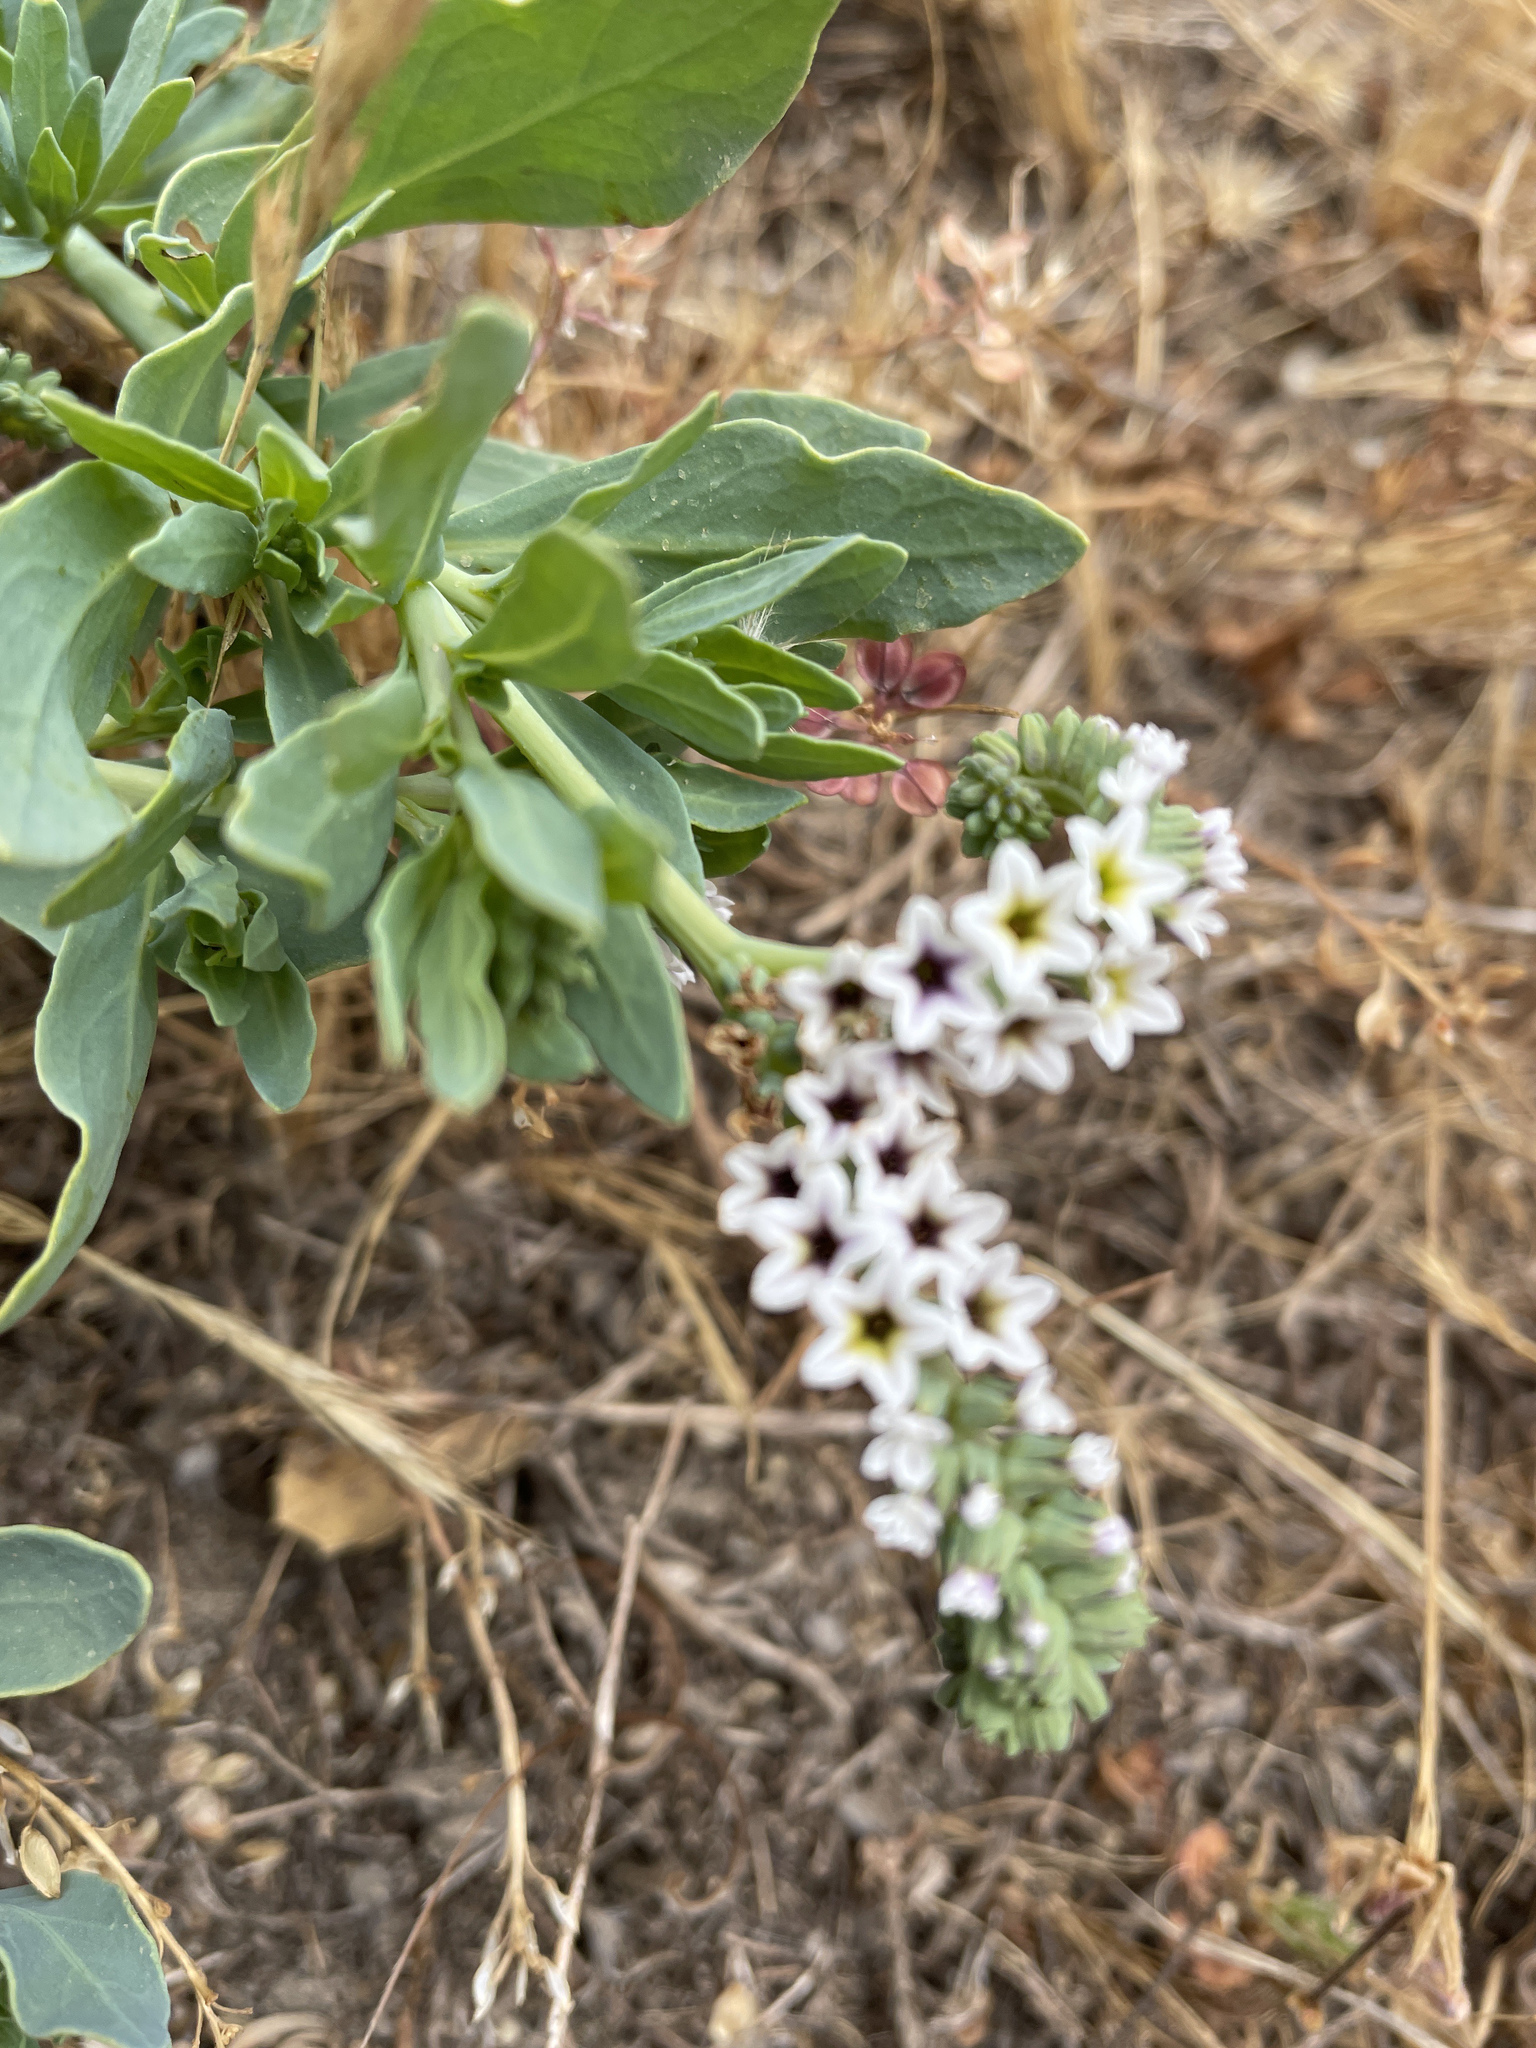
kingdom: Plantae
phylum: Tracheophyta
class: Magnoliopsida
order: Boraginales
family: Heliotropiaceae
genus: Heliotropium
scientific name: Heliotropium curassavicum
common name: Seaside heliotrope
